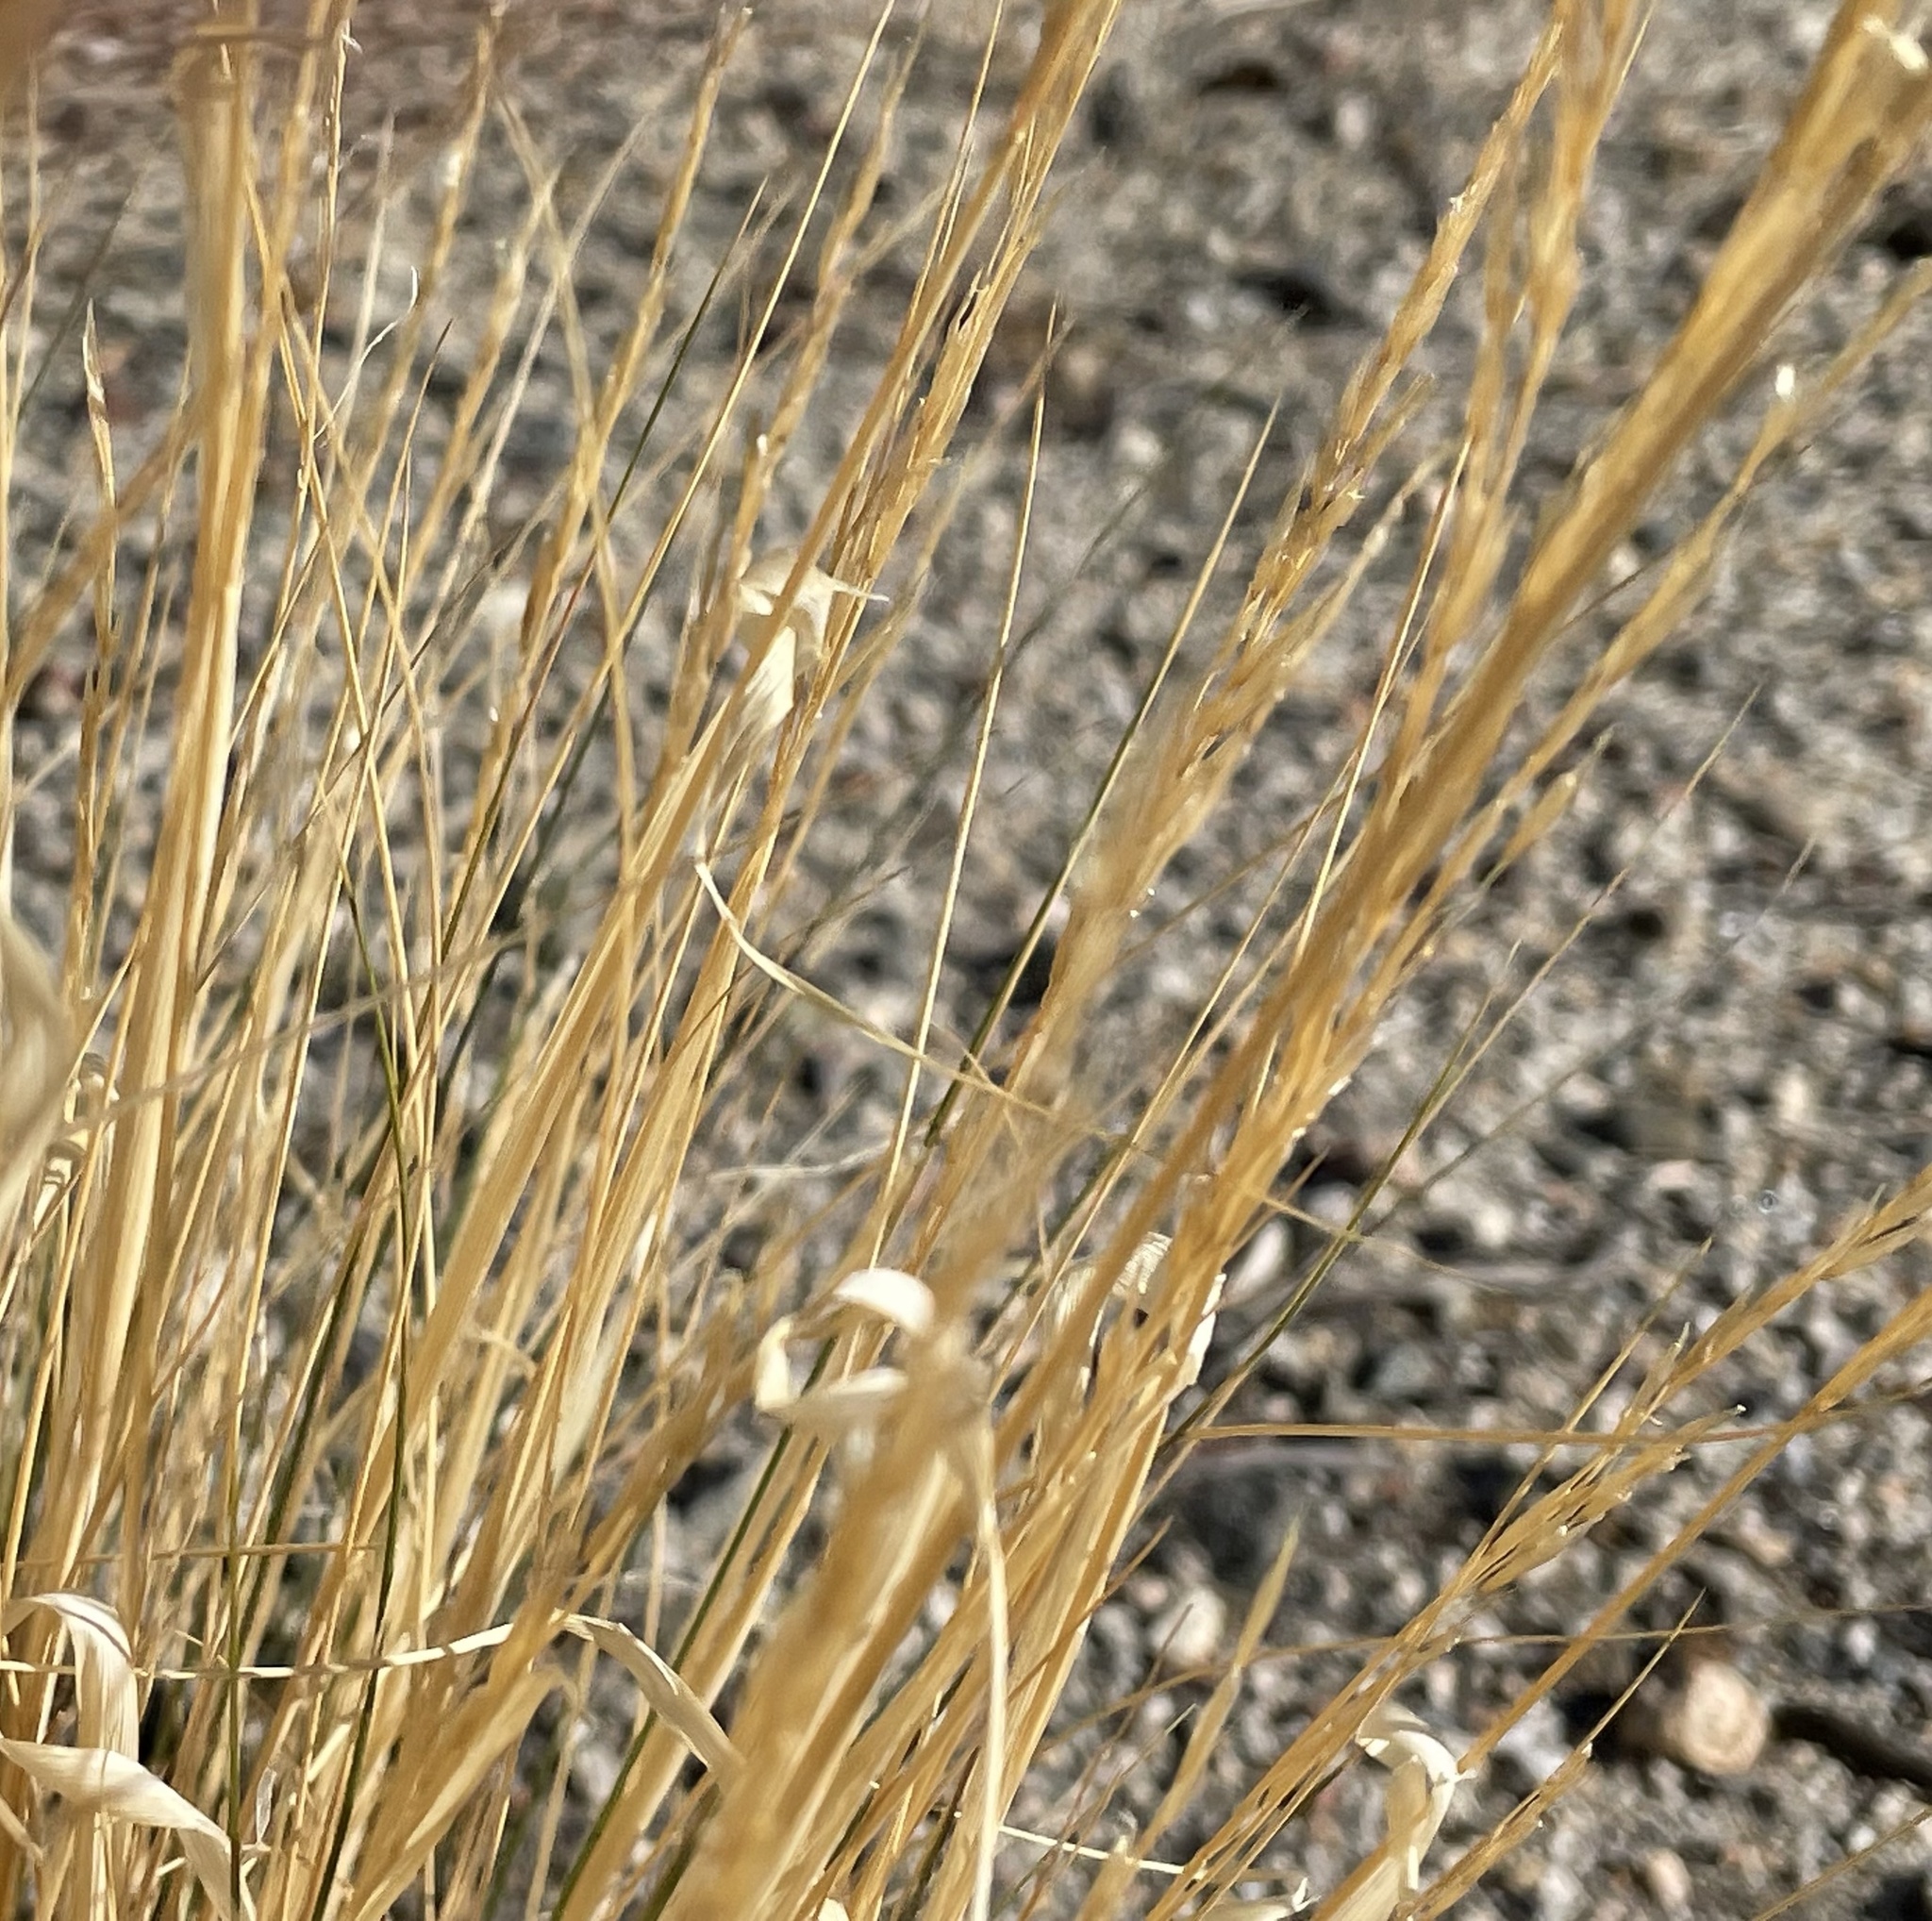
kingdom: Plantae
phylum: Tracheophyta
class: Liliopsida
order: Poales
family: Poaceae
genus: Pappostipa
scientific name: Pappostipa speciosa
